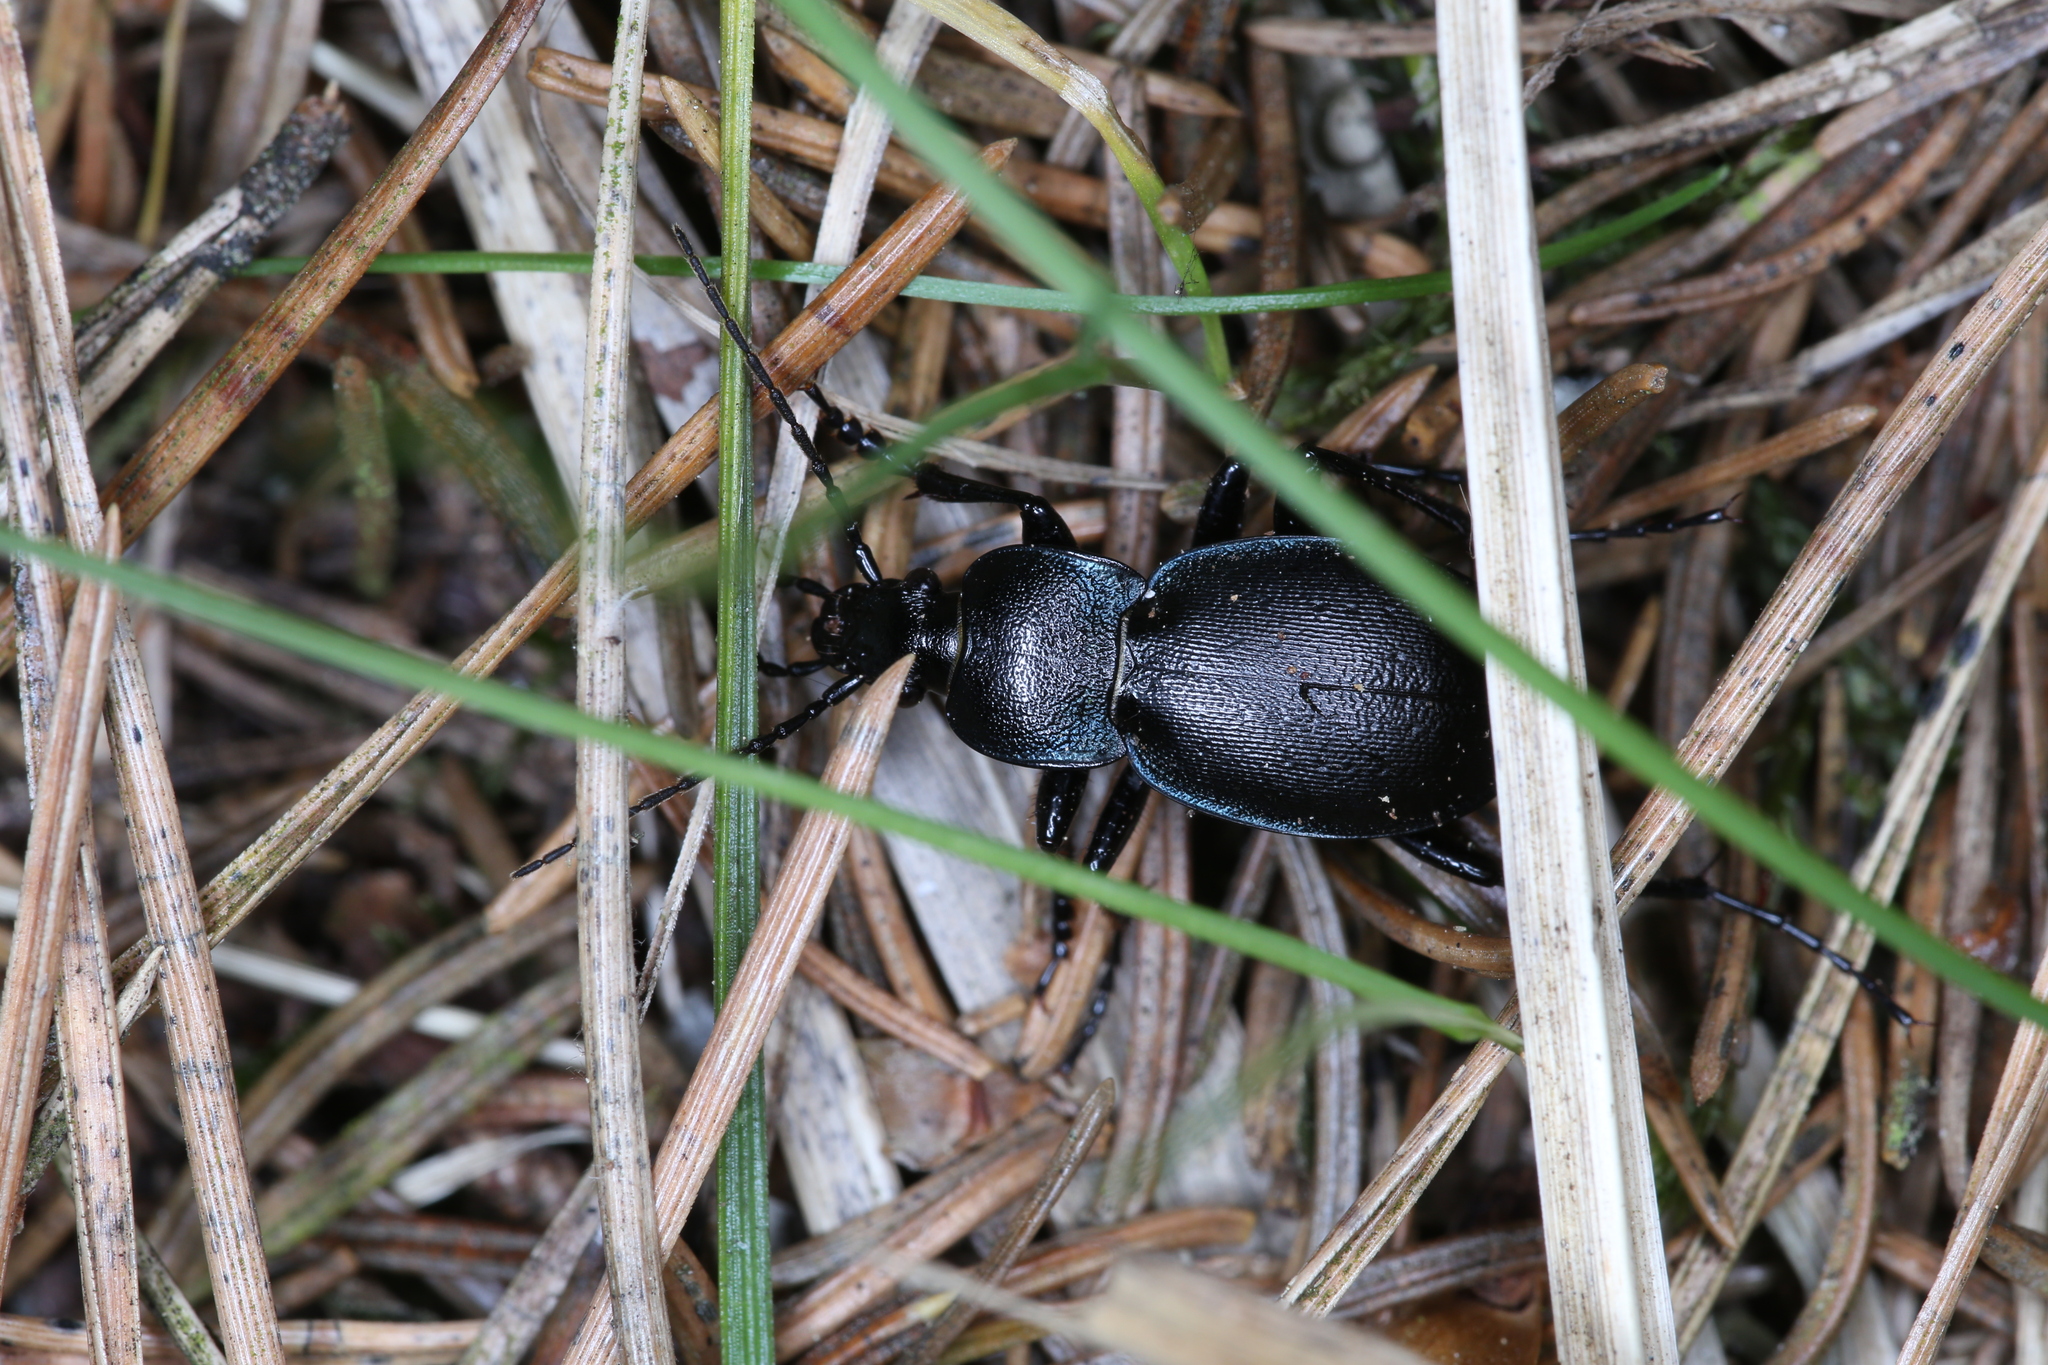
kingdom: Animalia
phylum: Arthropoda
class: Insecta
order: Coleoptera
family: Carabidae
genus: Carabus
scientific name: Carabus convexus
